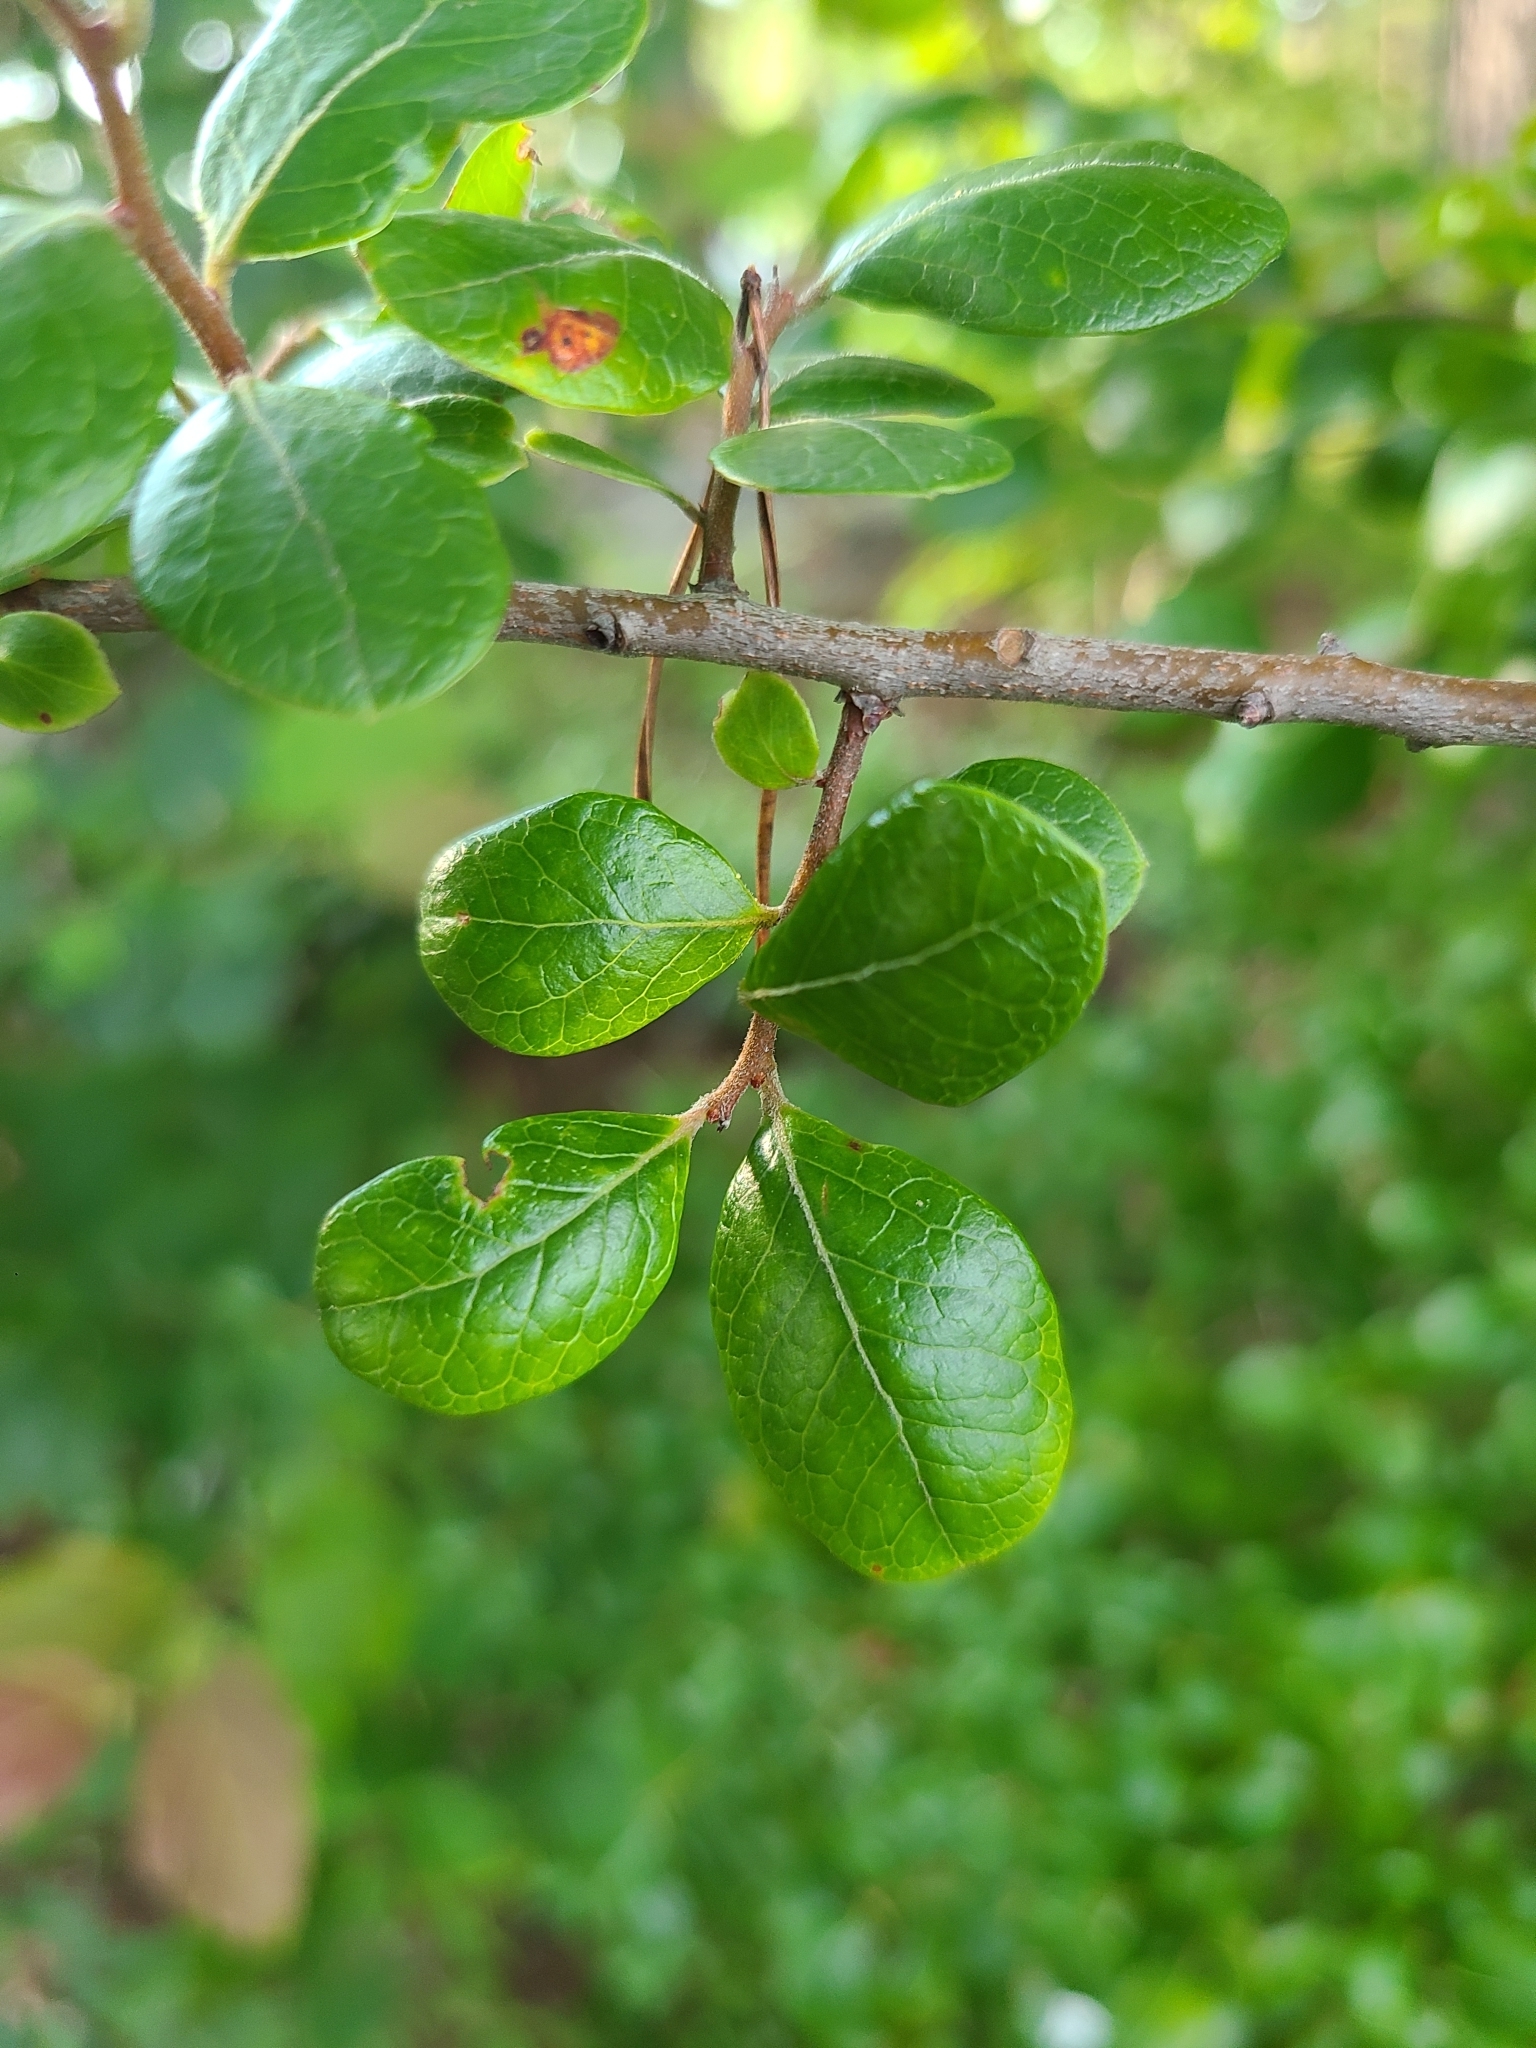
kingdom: Plantae
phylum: Tracheophyta
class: Magnoliopsida
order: Ericales
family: Ericaceae
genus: Vaccinium
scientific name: Vaccinium arboreum
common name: Farkleberry
